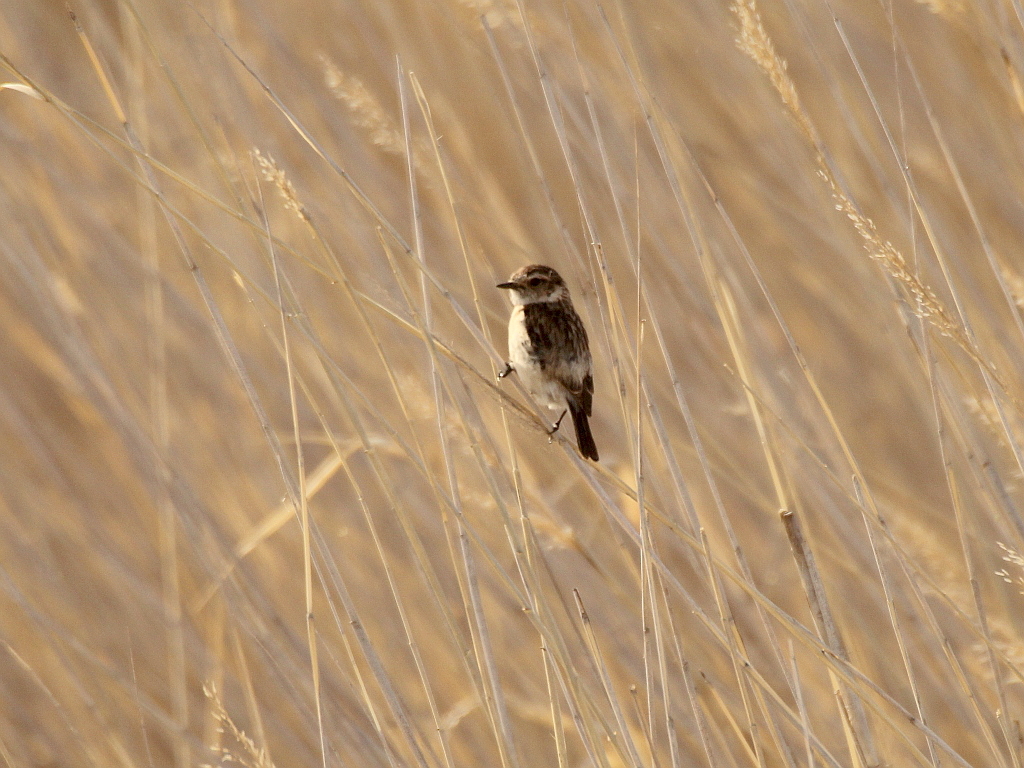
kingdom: Animalia
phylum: Chordata
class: Aves
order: Passeriformes
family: Muscicapidae
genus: Saxicola
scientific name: Saxicola maurus
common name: Siberian stonechat
